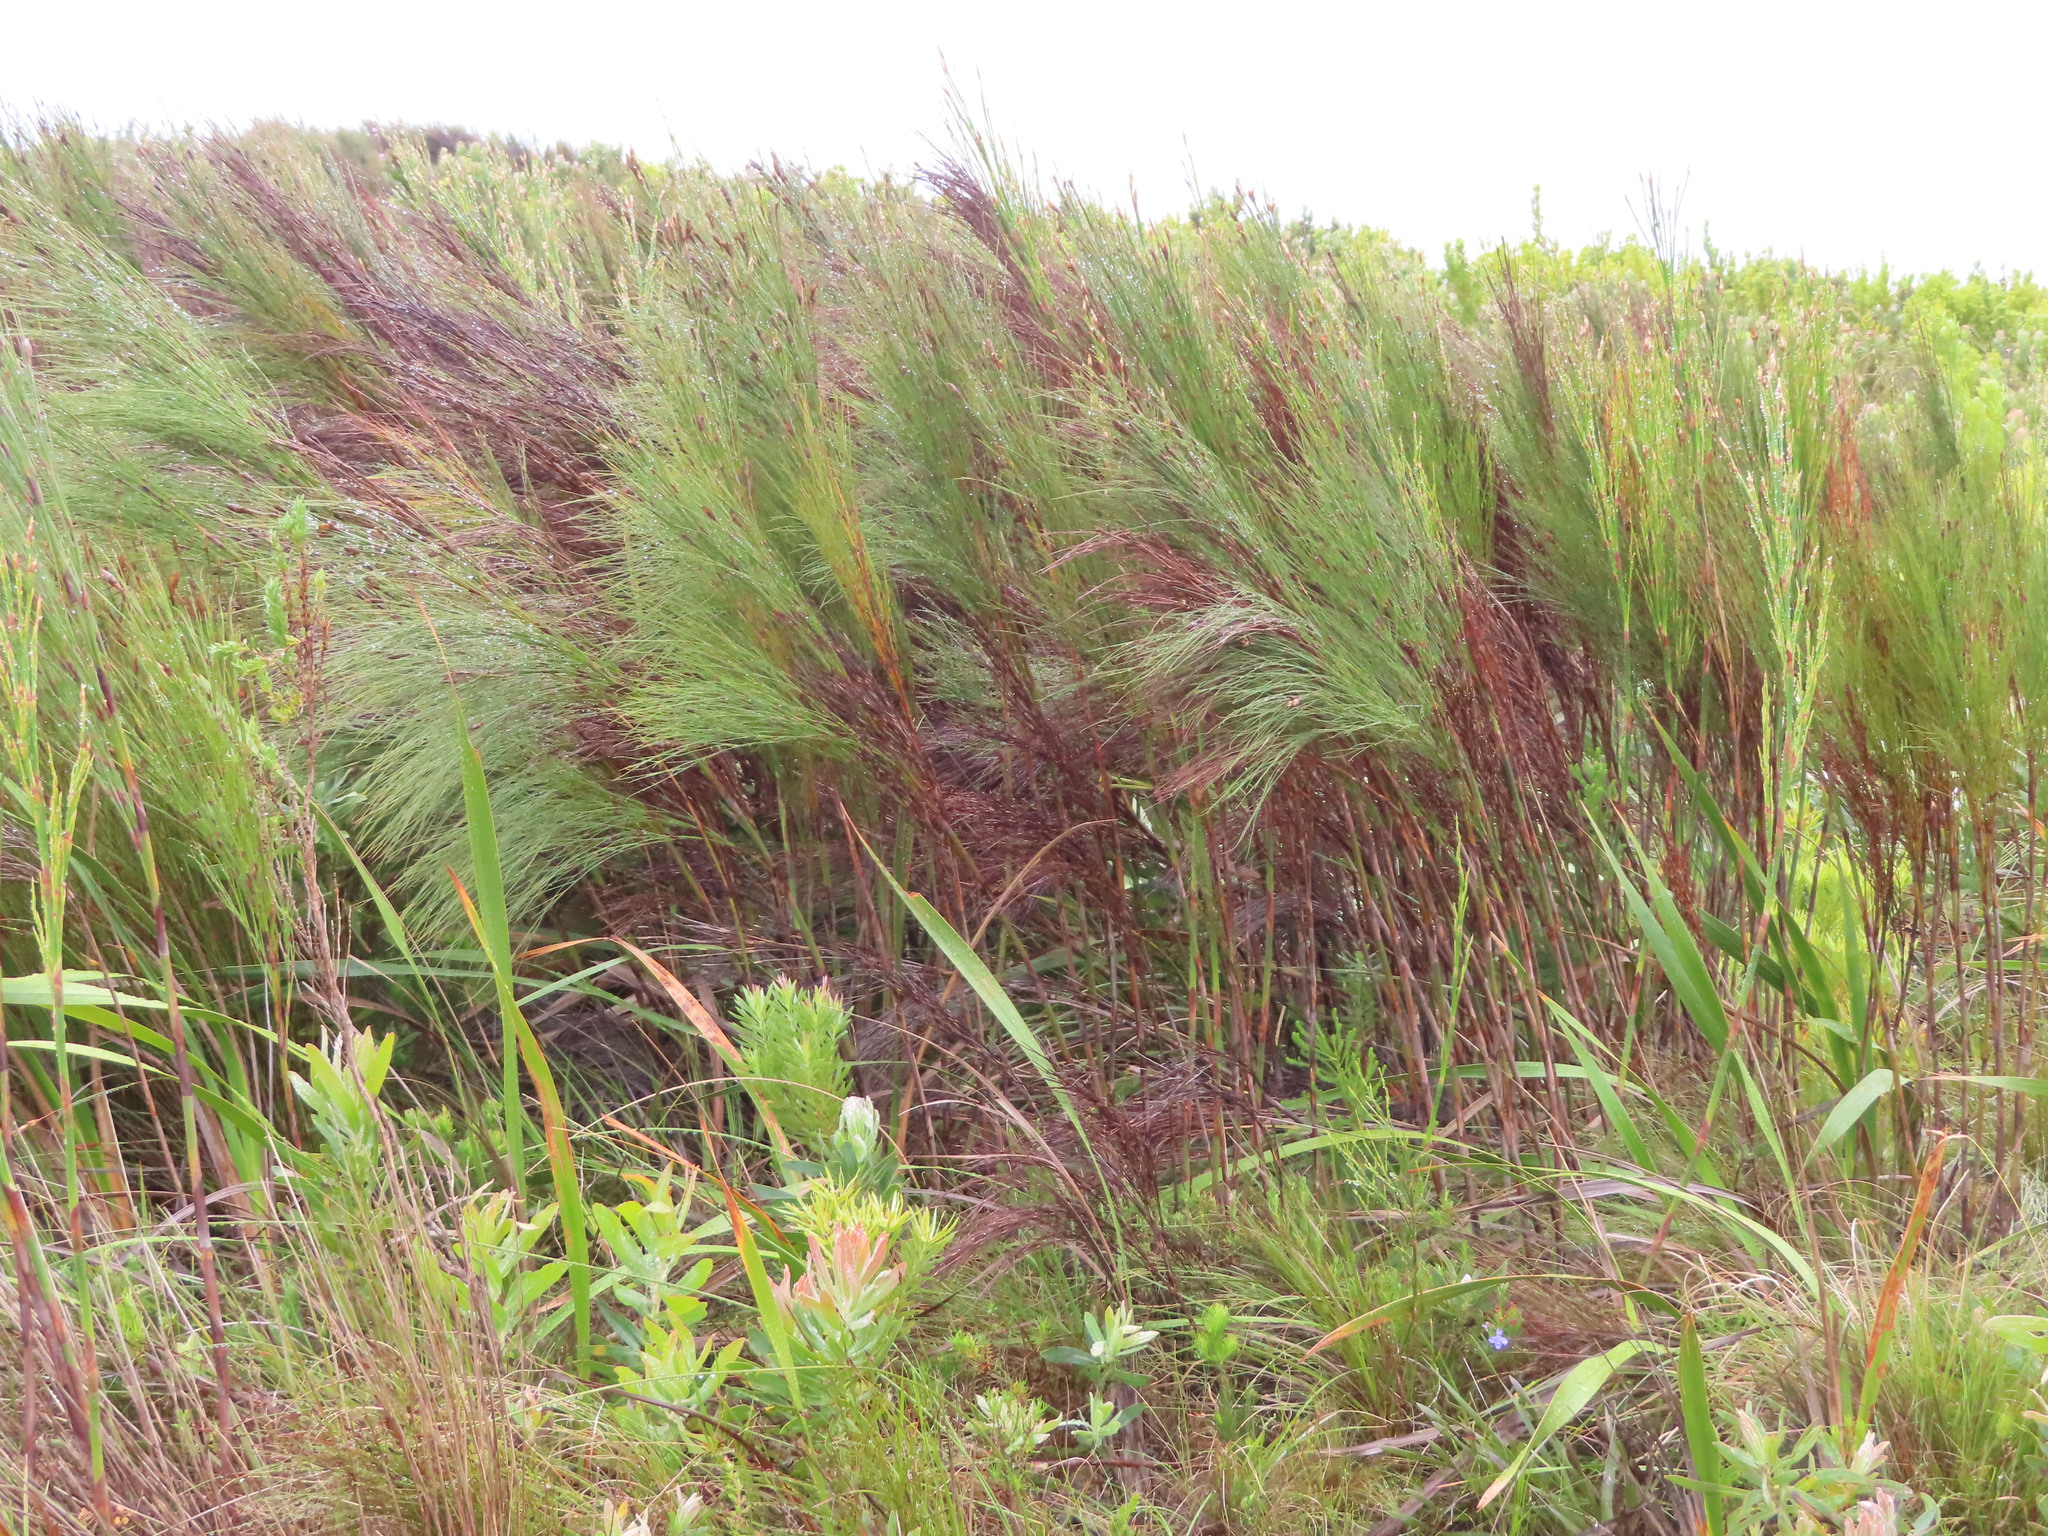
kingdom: Plantae
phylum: Tracheophyta
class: Liliopsida
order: Poales
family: Restionaceae
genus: Cannomois
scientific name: Cannomois virgata
